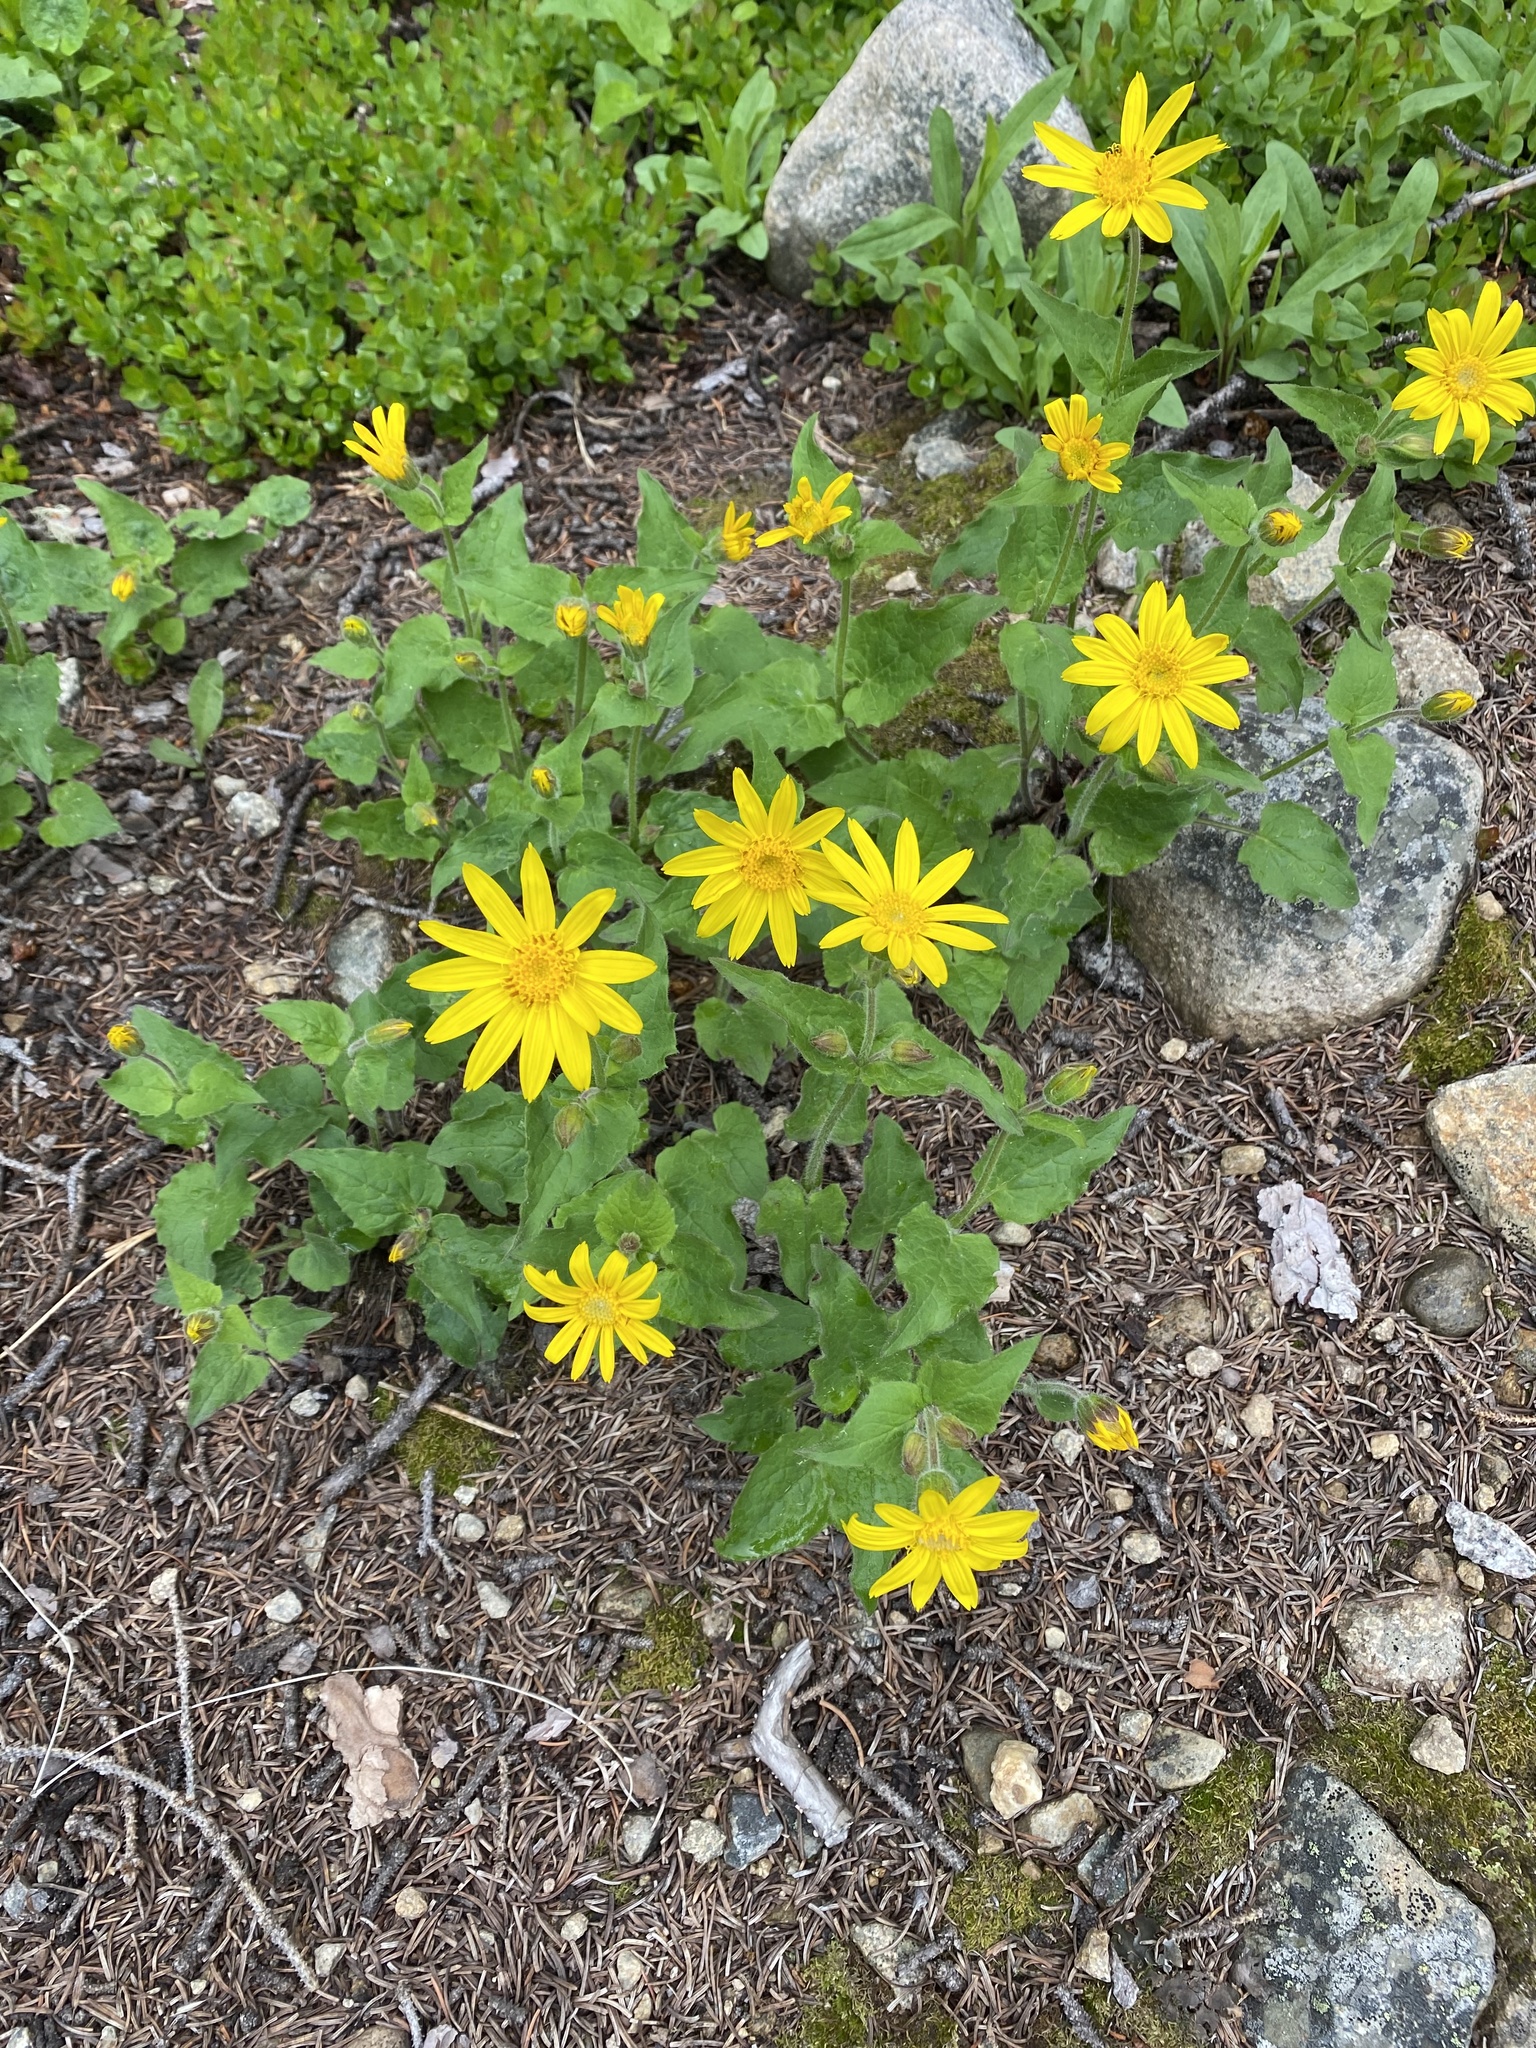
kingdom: Plantae
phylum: Tracheophyta
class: Magnoliopsida
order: Asterales
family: Asteraceae
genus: Arnica
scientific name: Arnica cordifolia
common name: Heart-leaf arnica
